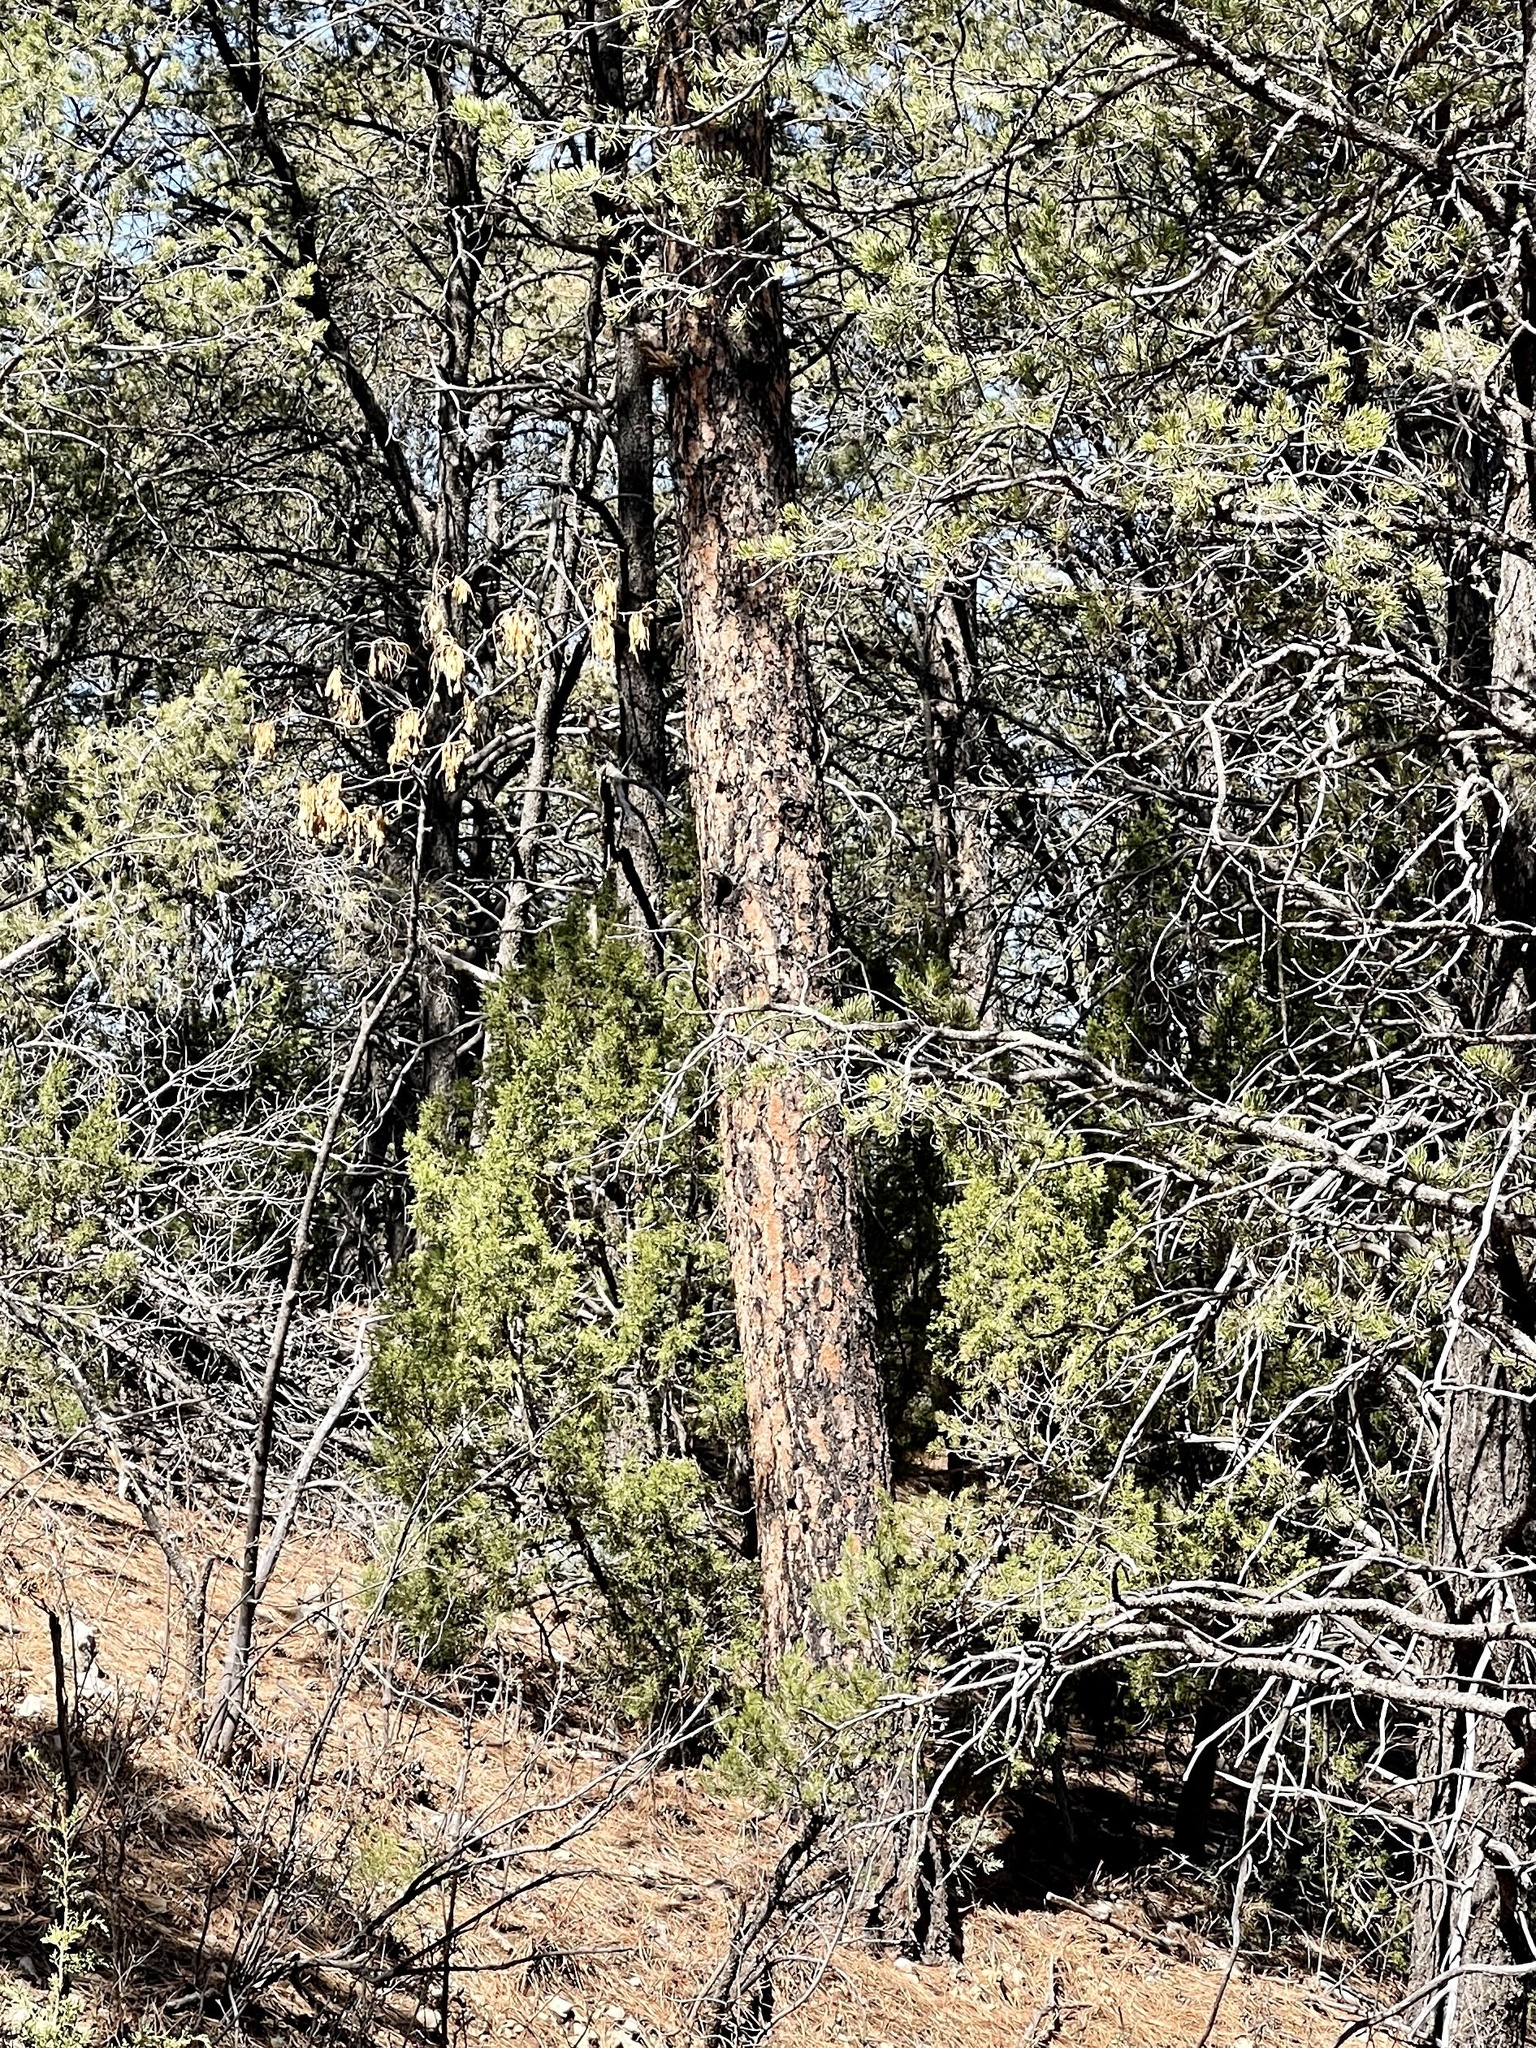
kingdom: Plantae
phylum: Tracheophyta
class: Pinopsida
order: Pinales
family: Pinaceae
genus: Pinus
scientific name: Pinus ponderosa
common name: Western yellow-pine
